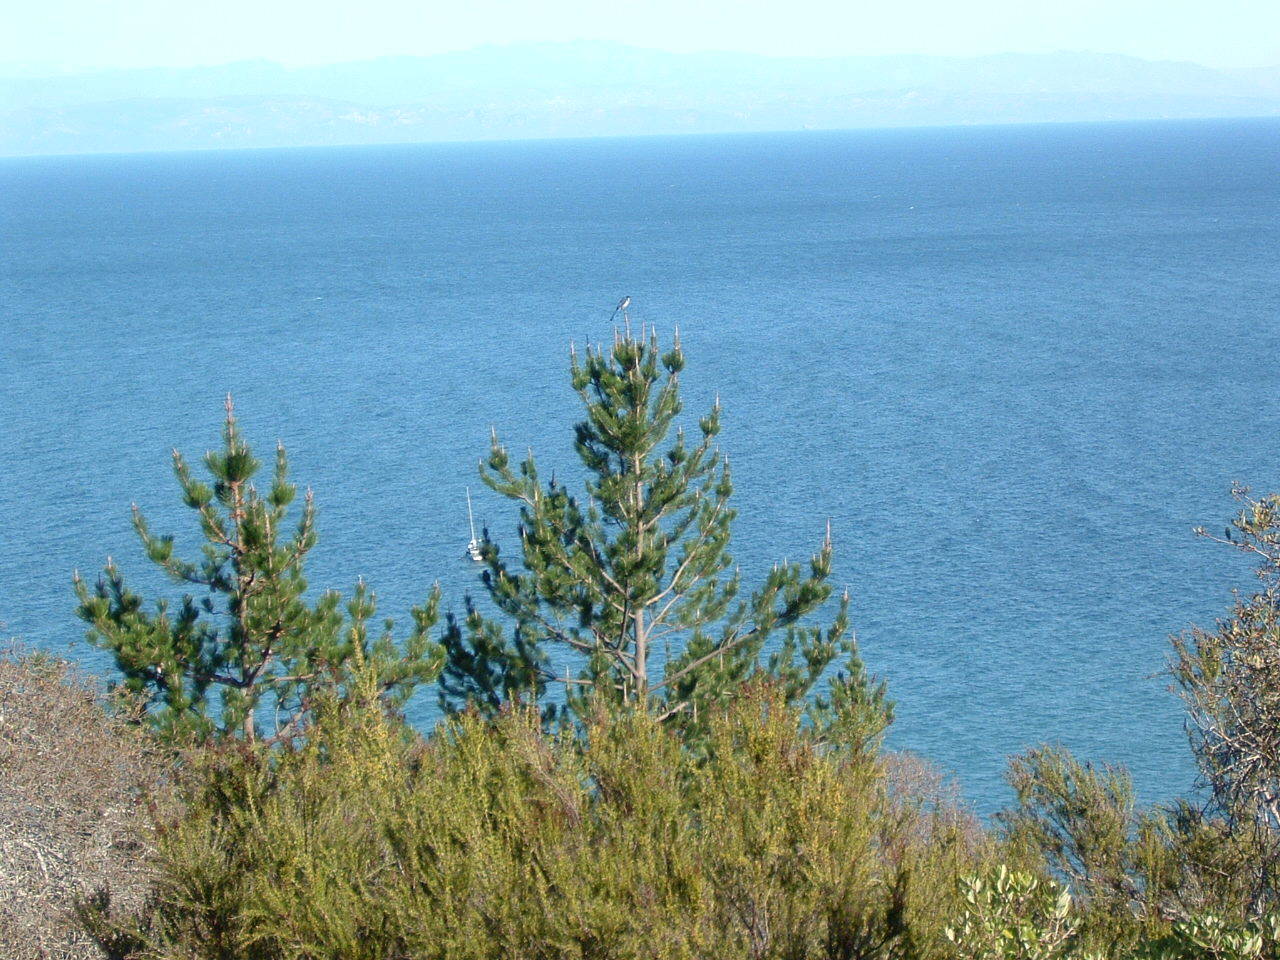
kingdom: Animalia
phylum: Chordata
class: Aves
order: Passeriformes
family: Corvidae
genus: Aphelocoma
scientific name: Aphelocoma insularis
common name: Island scrub-jay
